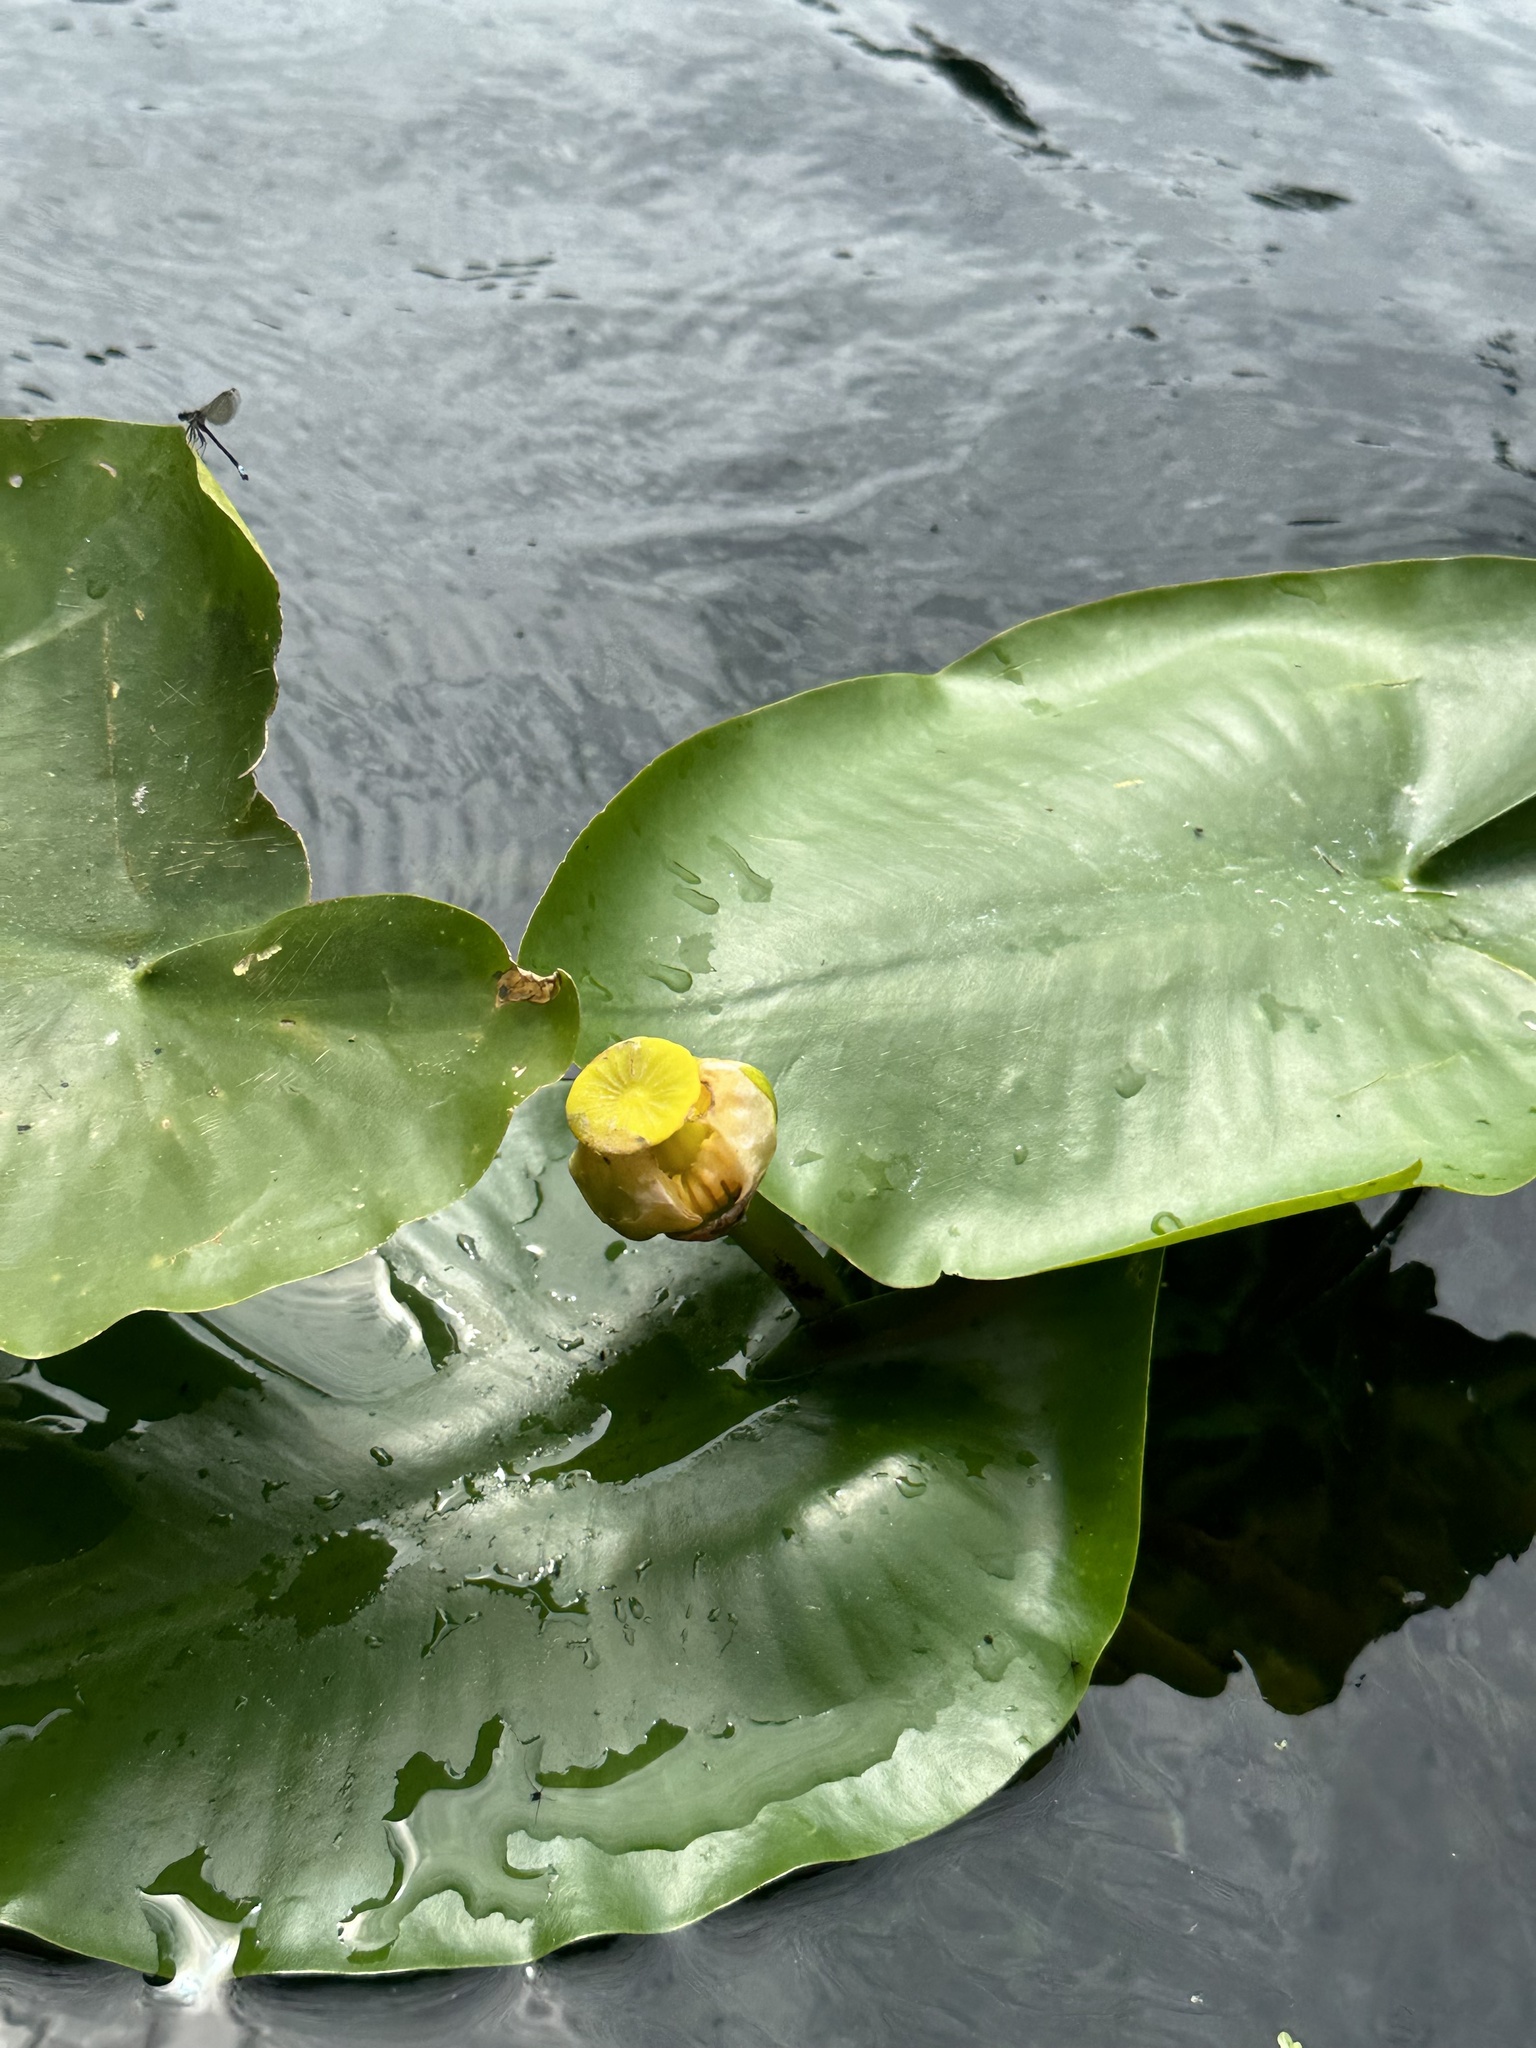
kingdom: Plantae
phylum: Tracheophyta
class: Magnoliopsida
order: Nymphaeales
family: Nymphaeaceae
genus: Nuphar
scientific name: Nuphar advena
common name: Spatter-dock
